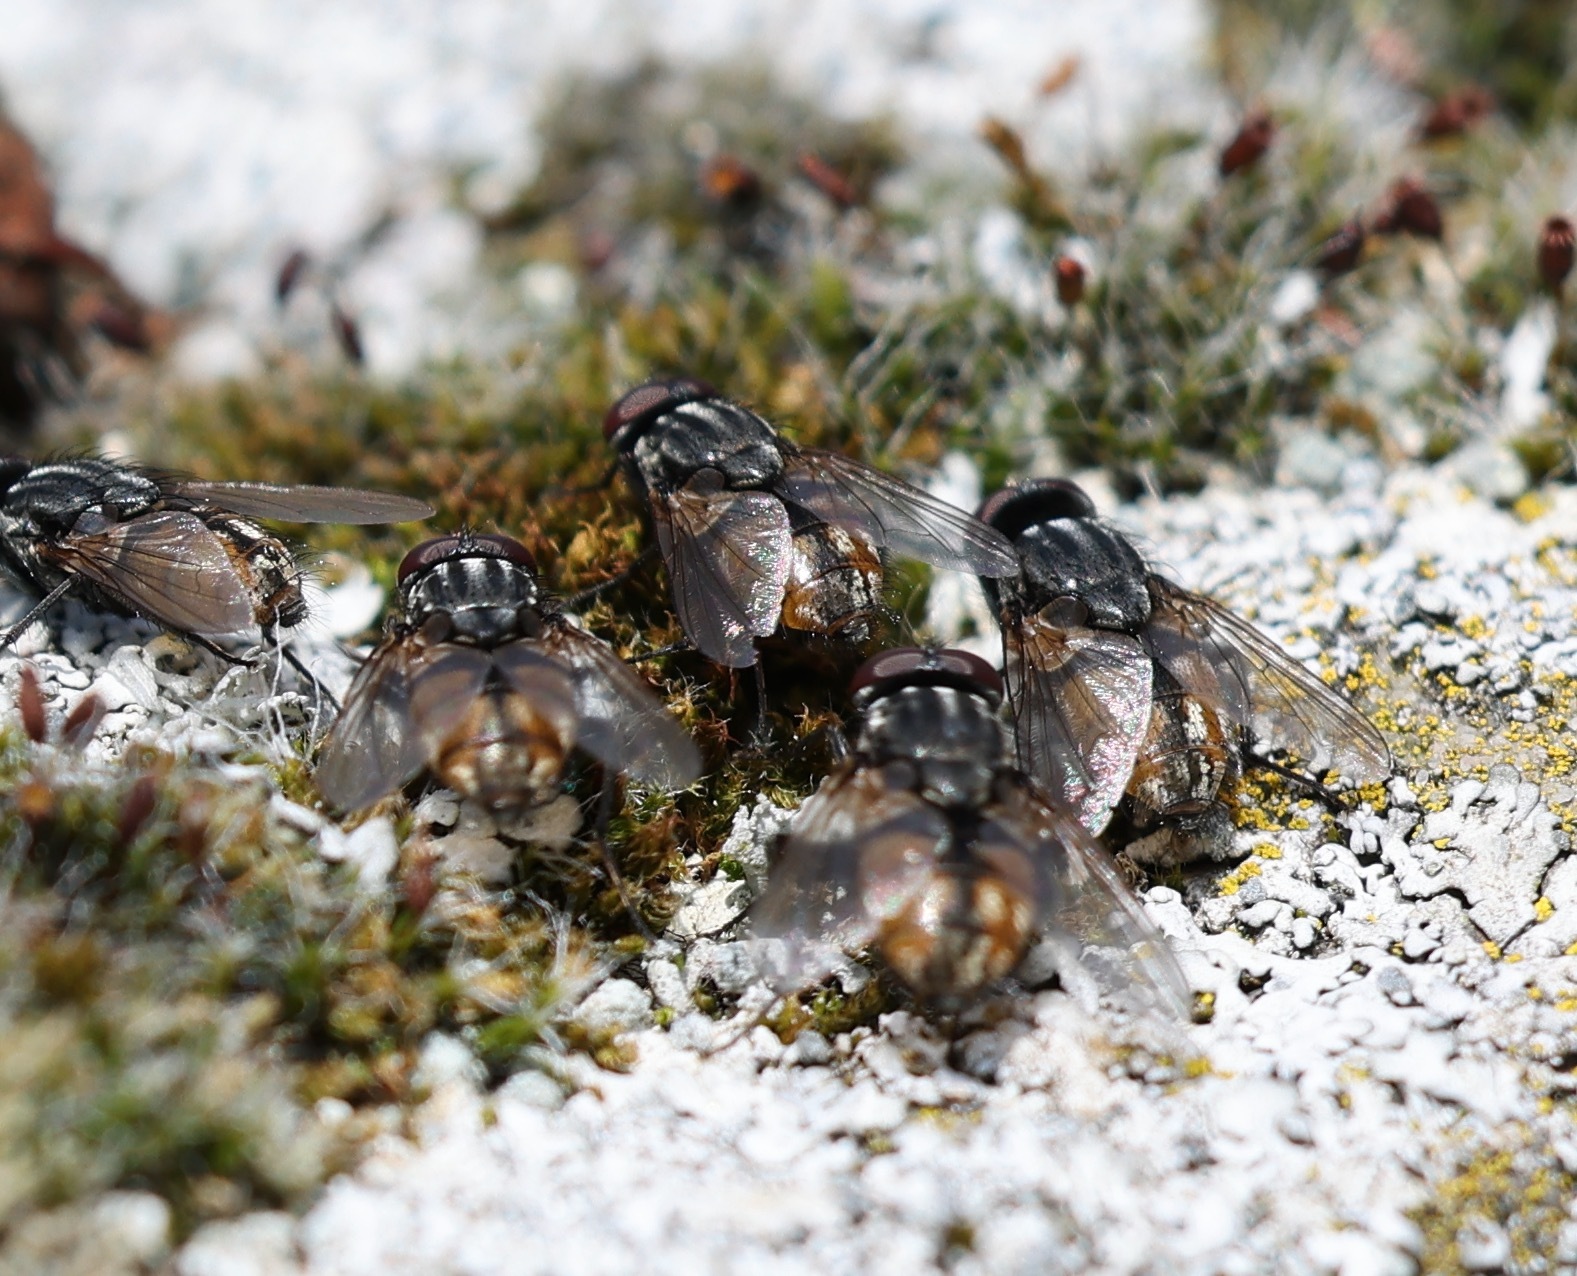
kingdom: Animalia
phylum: Arthropoda
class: Insecta
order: Diptera
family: Muscidae
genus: Musca
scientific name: Musca autumnalis
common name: Face fly
